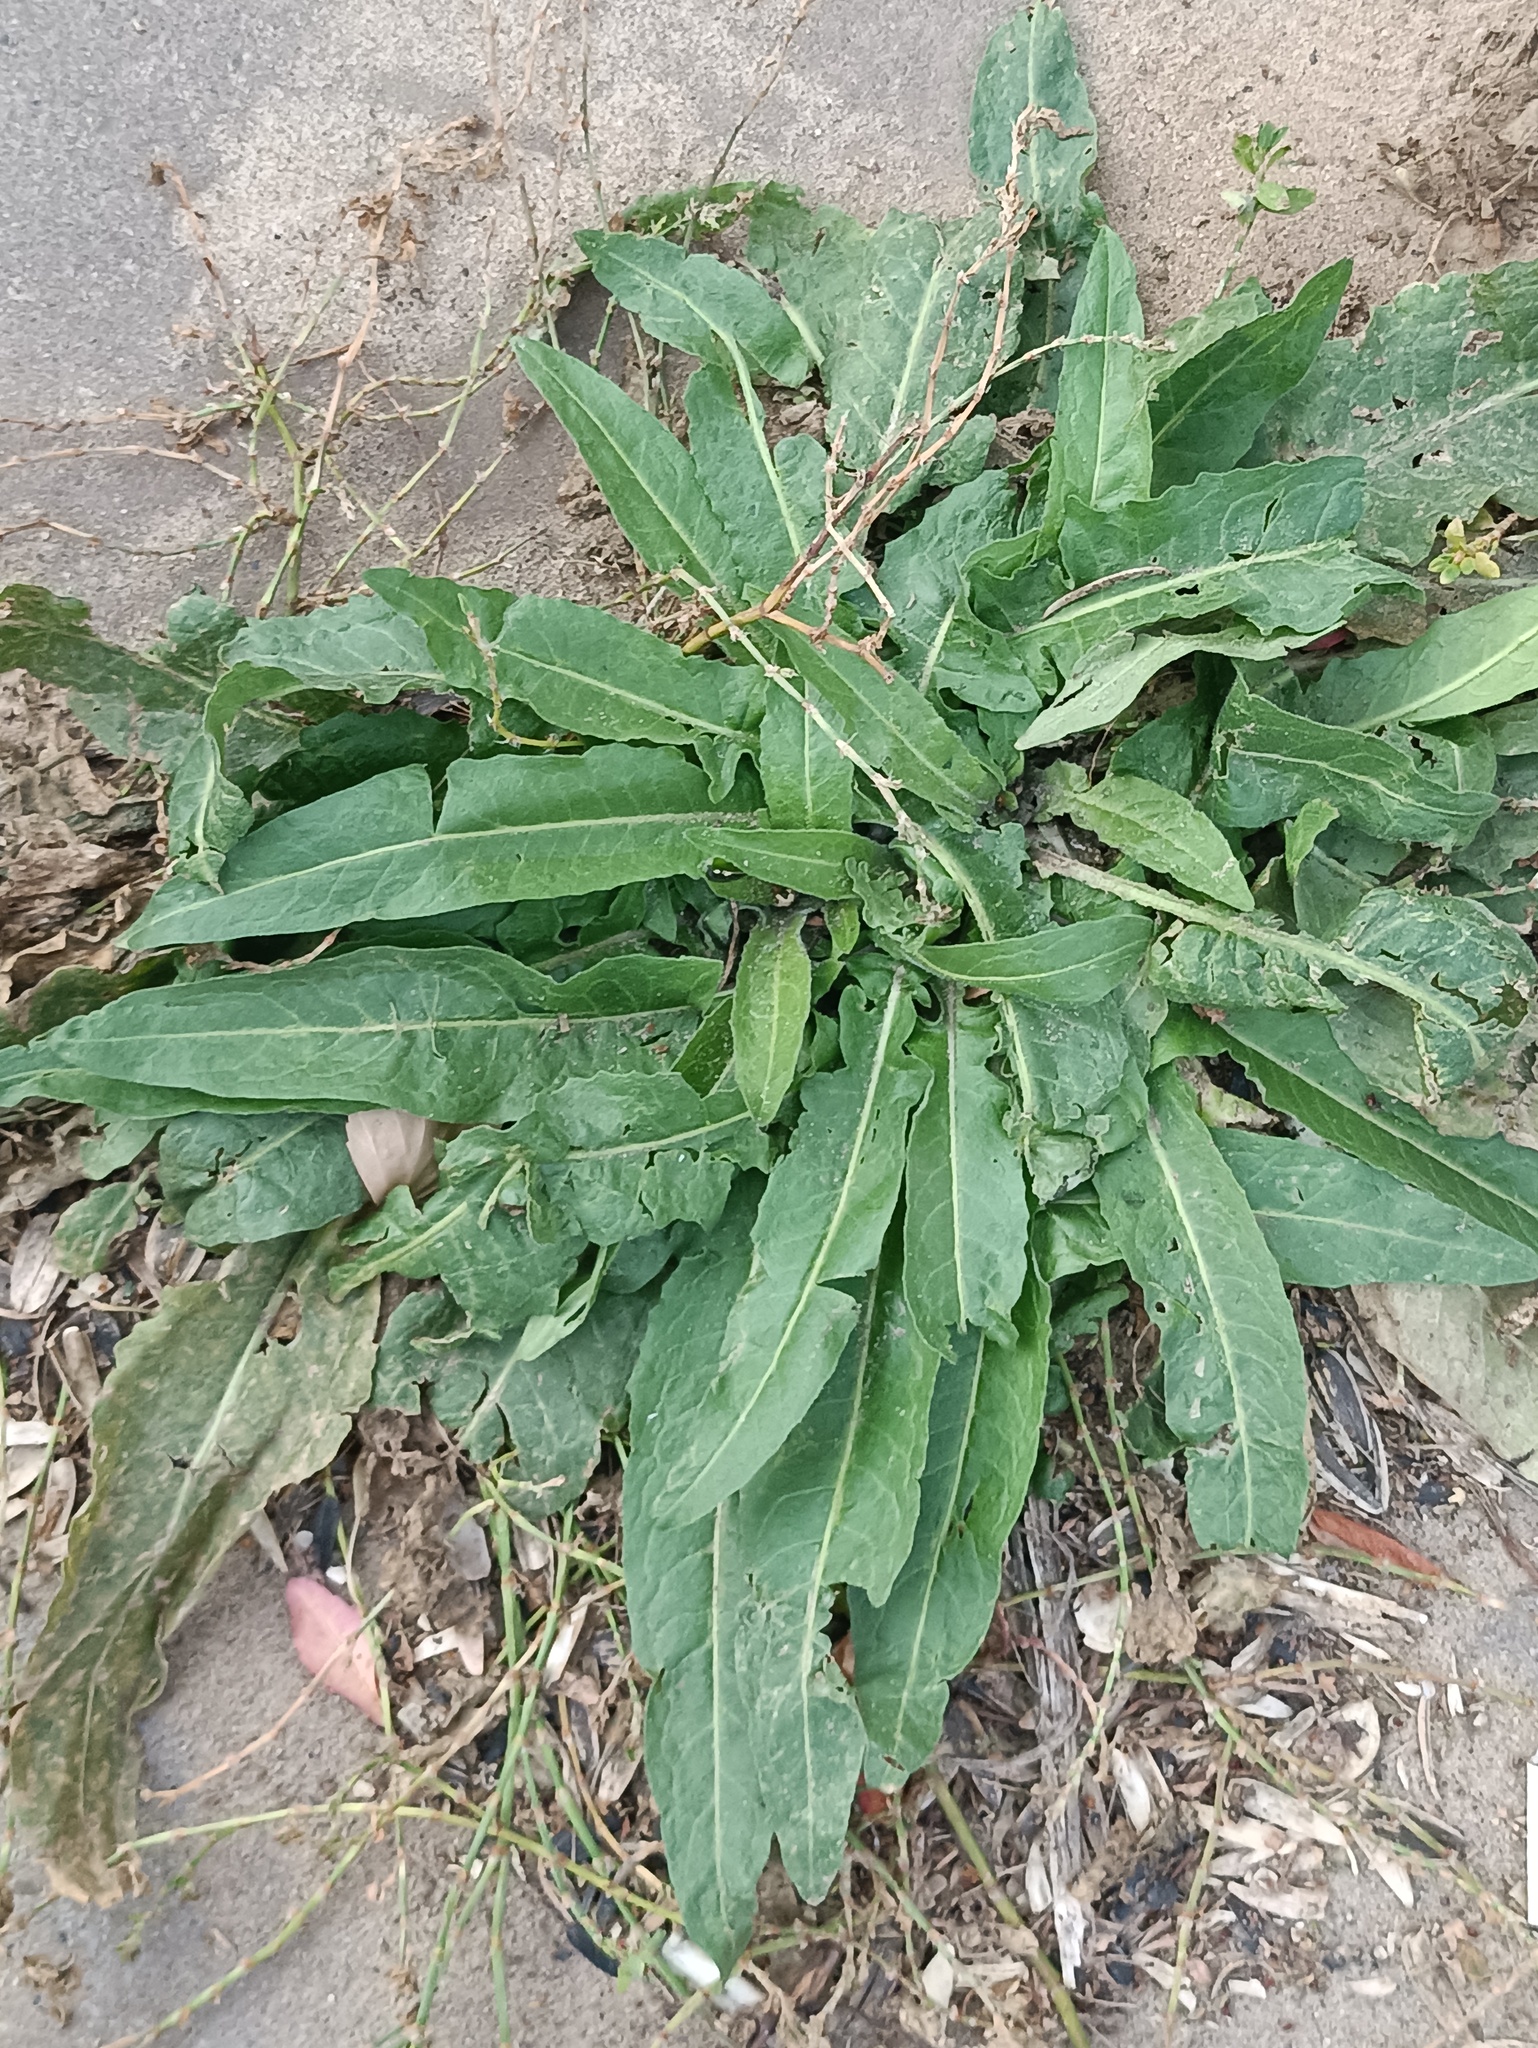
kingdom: Plantae
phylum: Tracheophyta
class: Magnoliopsida
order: Brassicales
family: Brassicaceae
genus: Bunias
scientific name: Bunias orientalis
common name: Warty-cabbage
